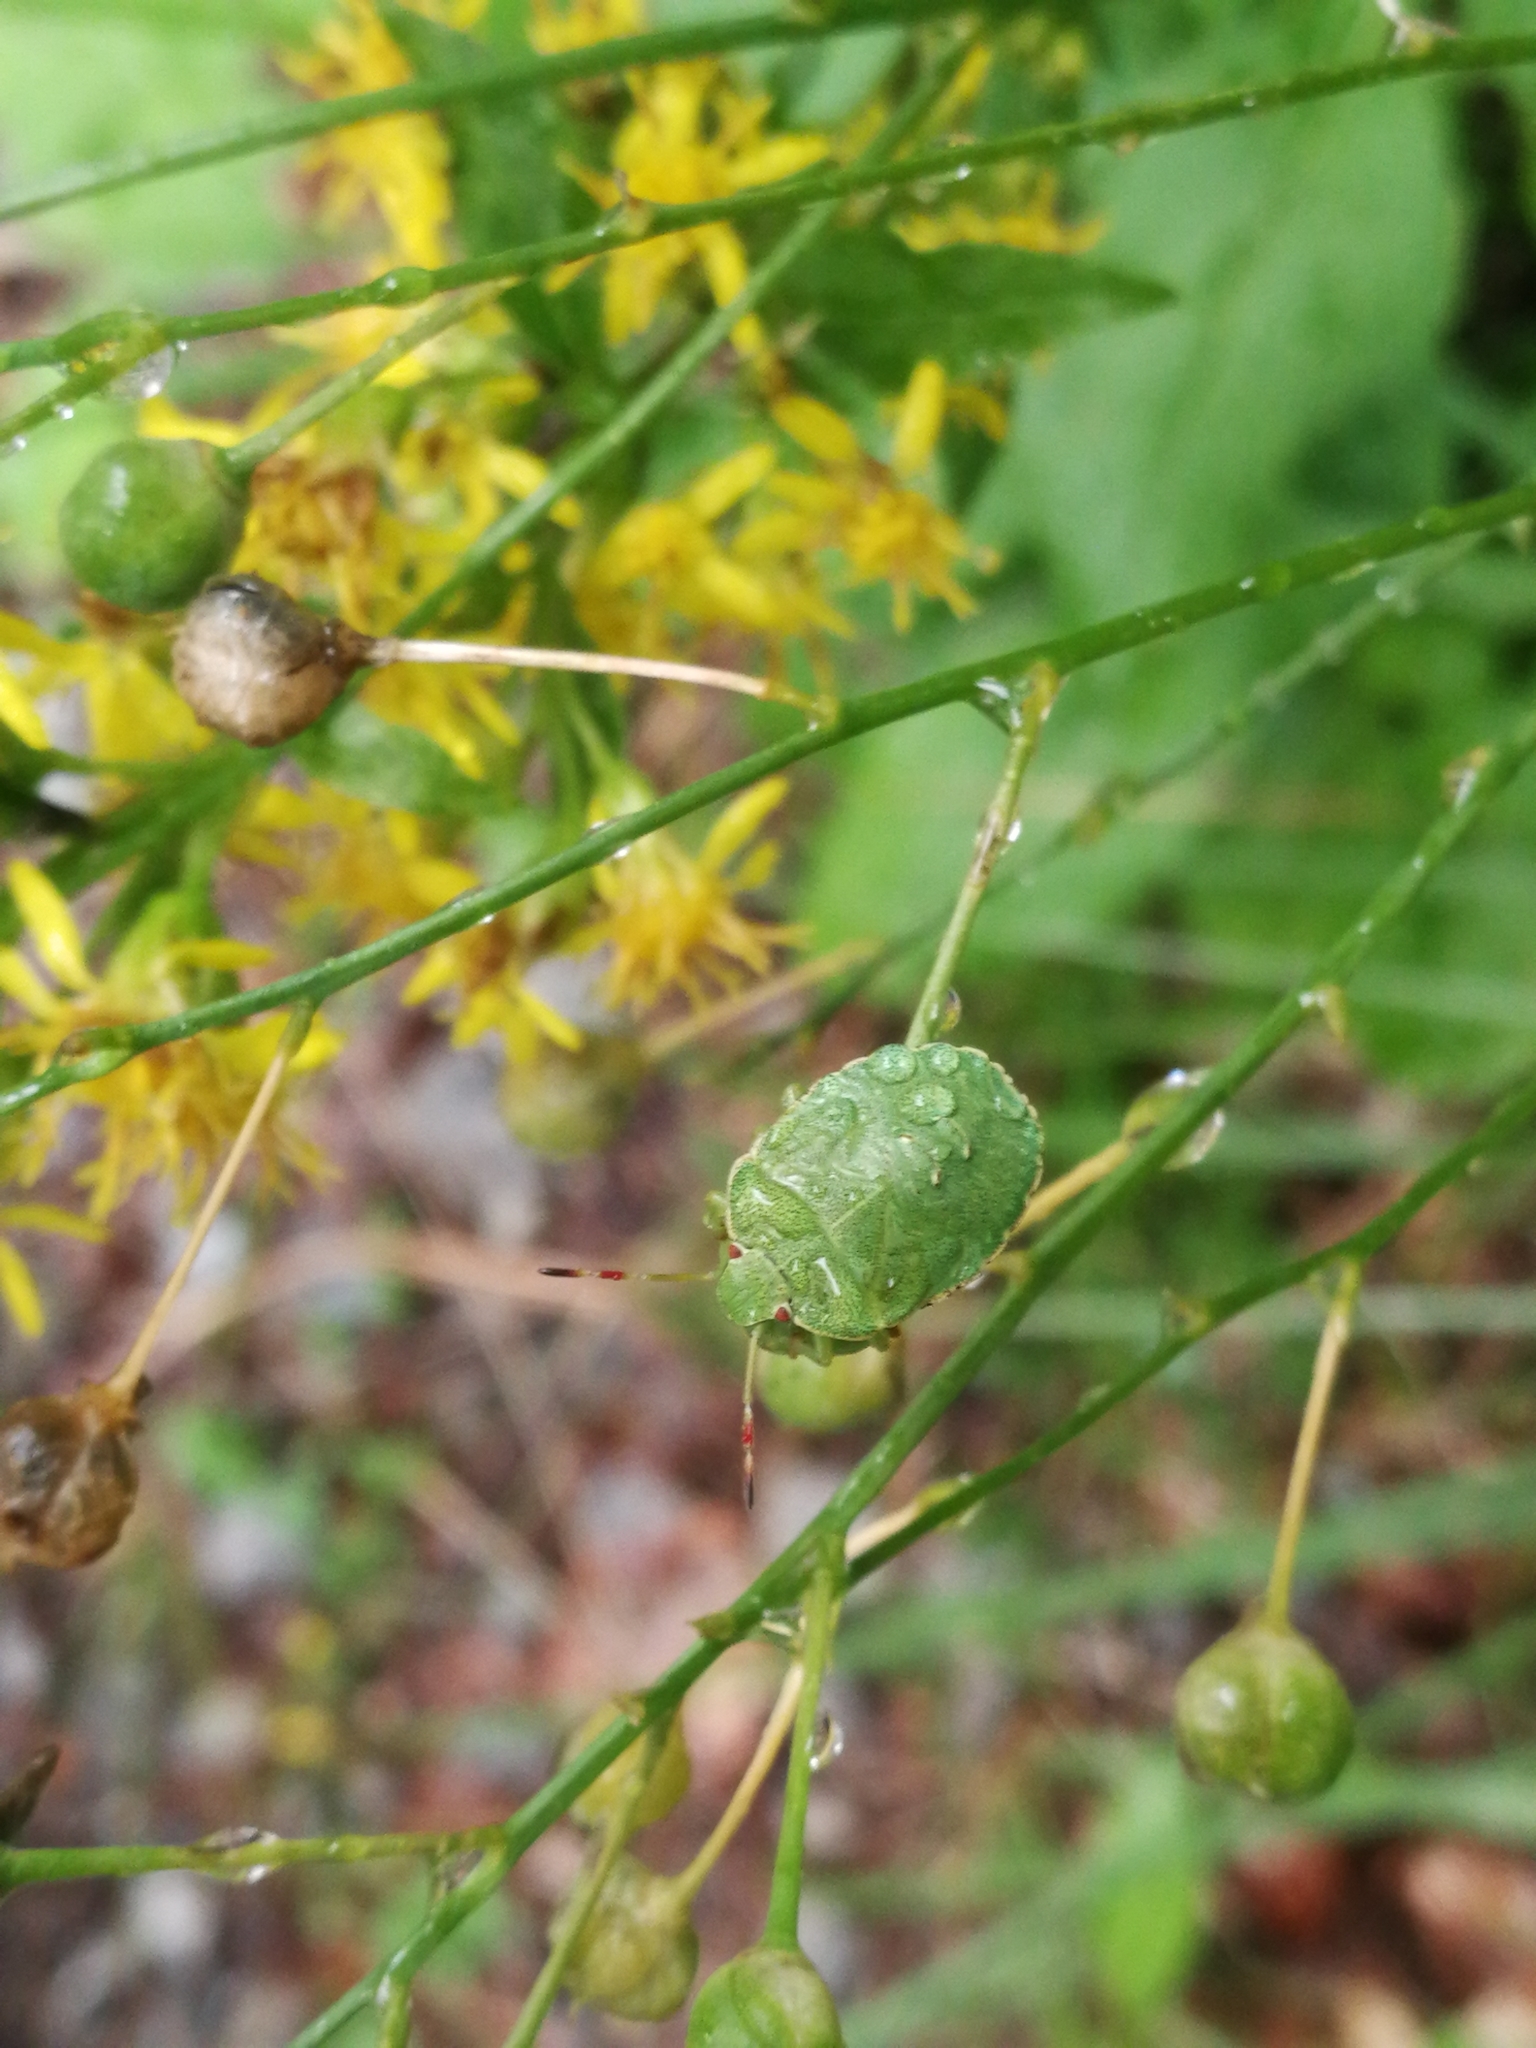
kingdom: Animalia
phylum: Arthropoda
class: Insecta
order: Hemiptera
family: Pentatomidae
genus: Palomena
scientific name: Palomena prasina
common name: Green shieldbug
